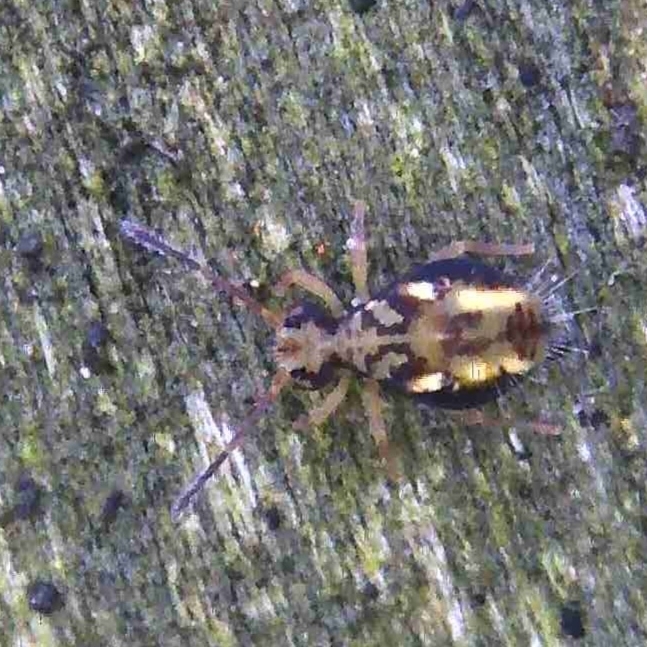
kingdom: Animalia
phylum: Arthropoda
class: Collembola
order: Symphypleona
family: Dicyrtomidae
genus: Dicyrtomina
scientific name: Dicyrtomina saundersi
